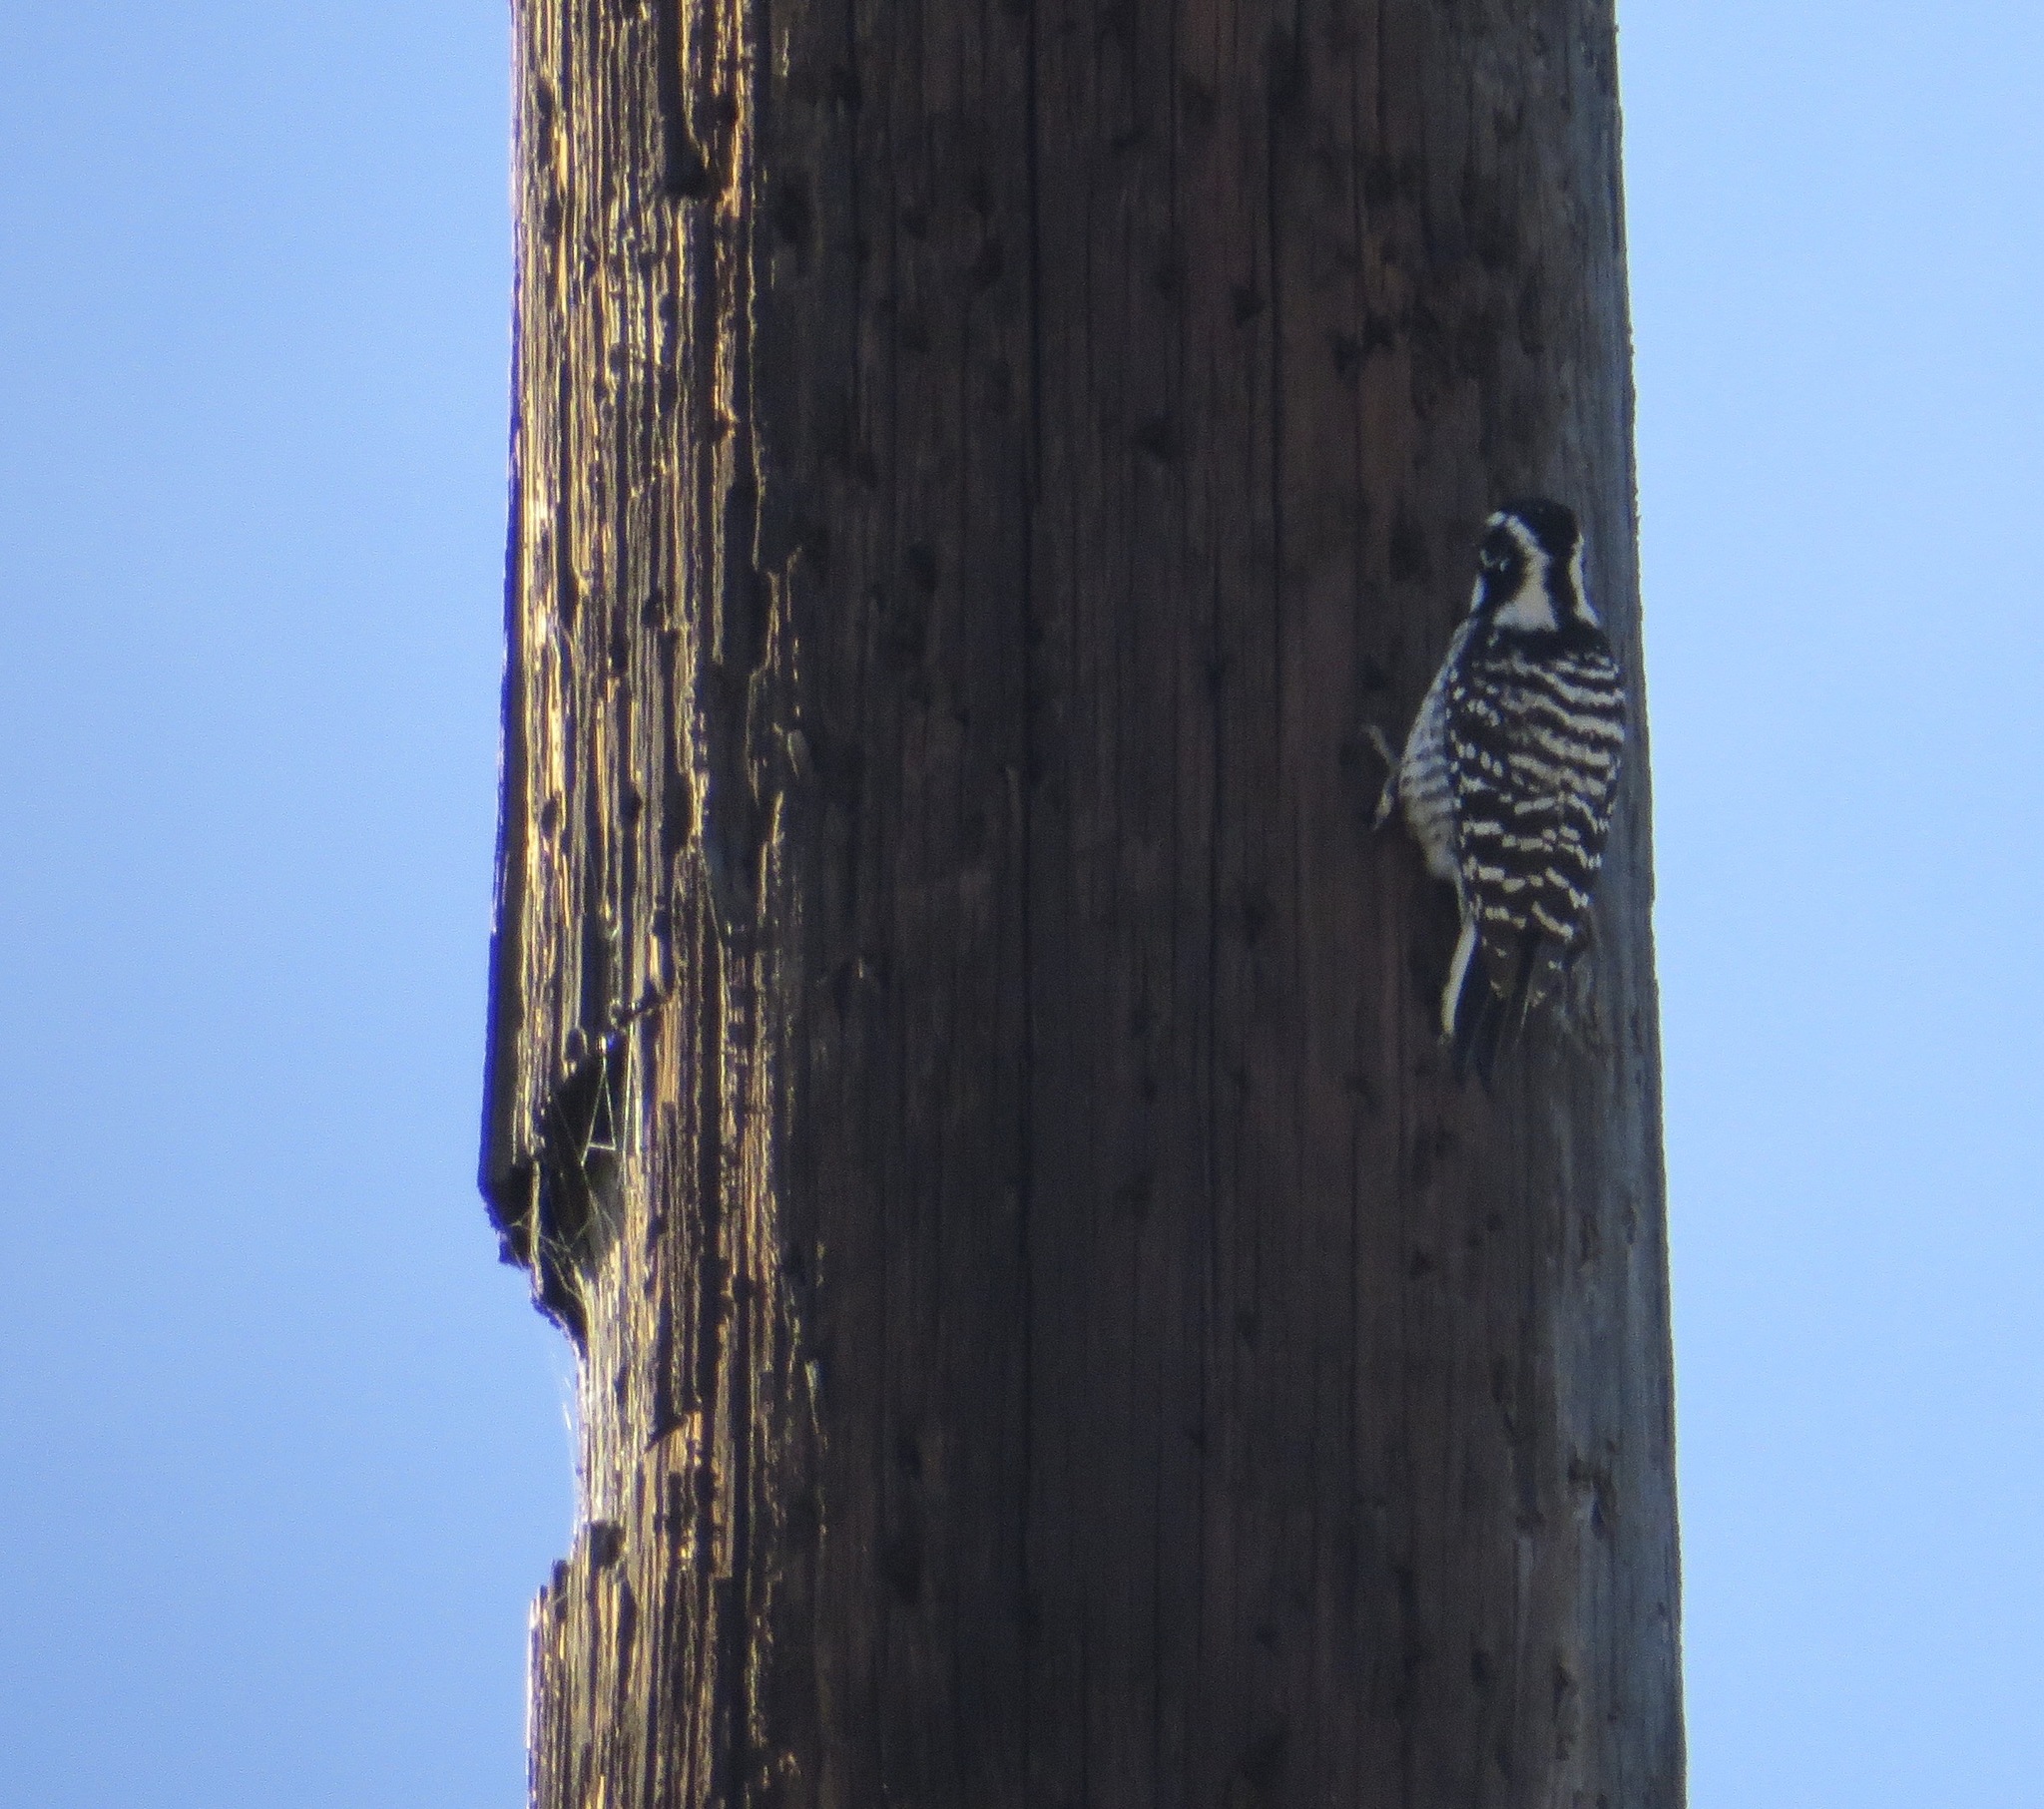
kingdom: Animalia
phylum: Chordata
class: Aves
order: Piciformes
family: Picidae
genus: Dryobates
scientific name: Dryobates nuttallii
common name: Nuttall's woodpecker
